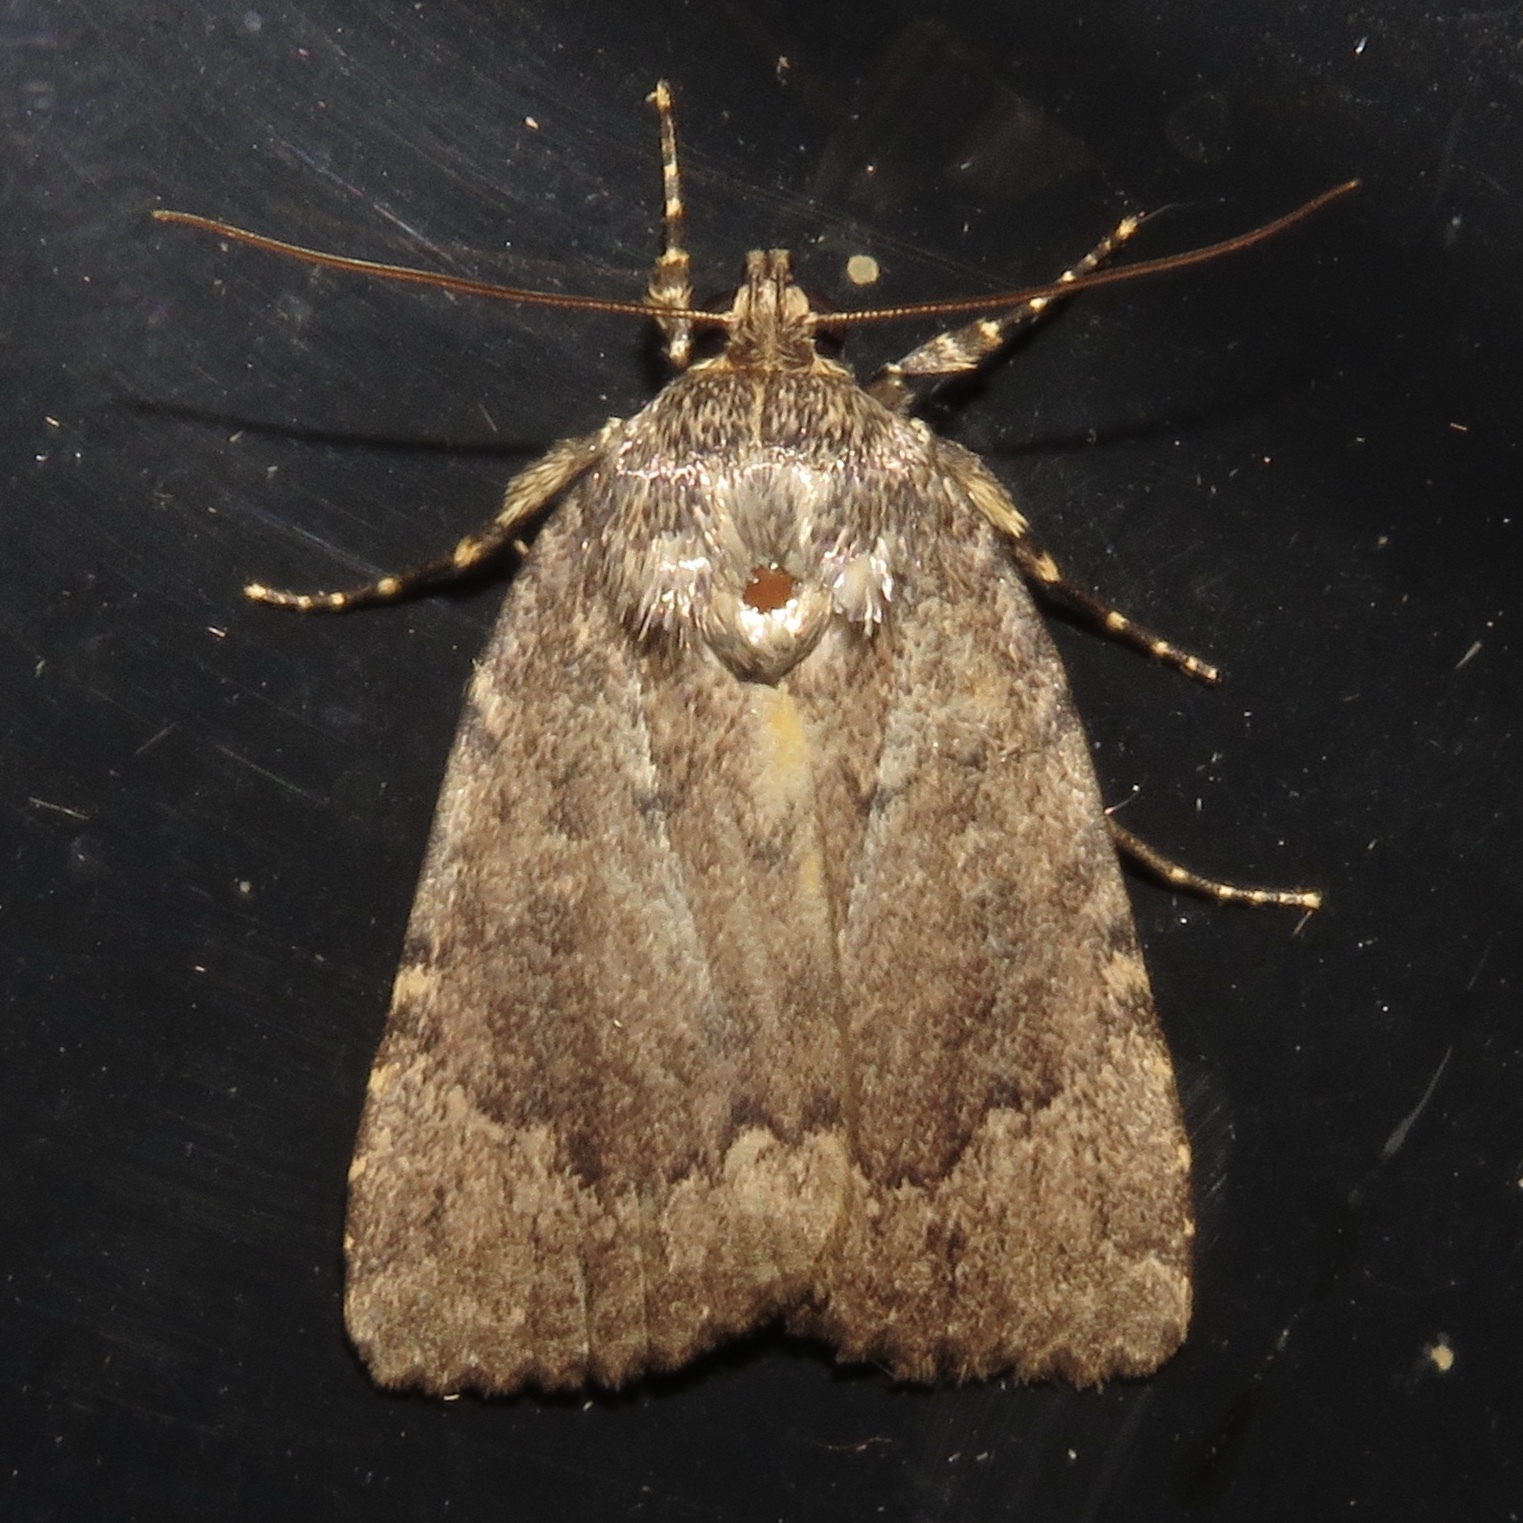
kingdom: Animalia
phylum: Arthropoda
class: Insecta
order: Lepidoptera
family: Noctuidae
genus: Amphipyra
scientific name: Amphipyra pyramidoides
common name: American copper underwing
